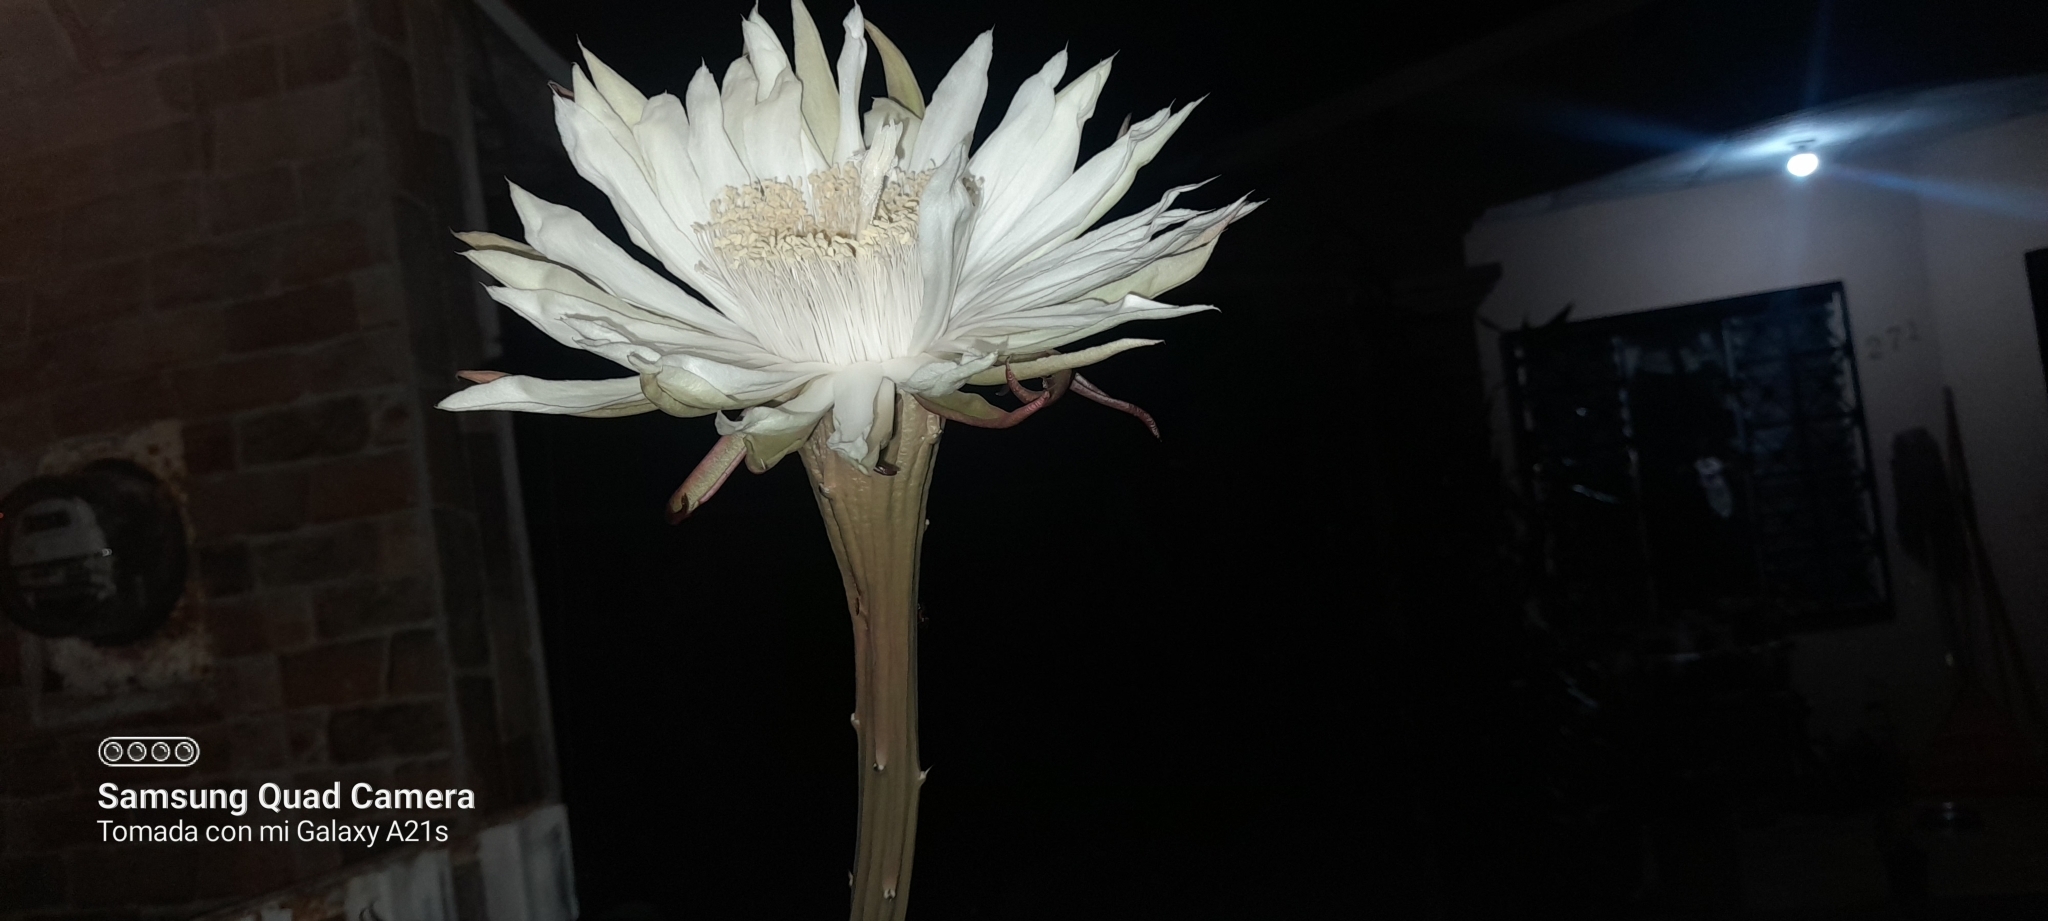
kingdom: Plantae
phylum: Tracheophyta
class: Magnoliopsida
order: Caryophyllales
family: Cactaceae
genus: Acanthocereus
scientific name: Acanthocereus tetragonus
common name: Triangle cactus
